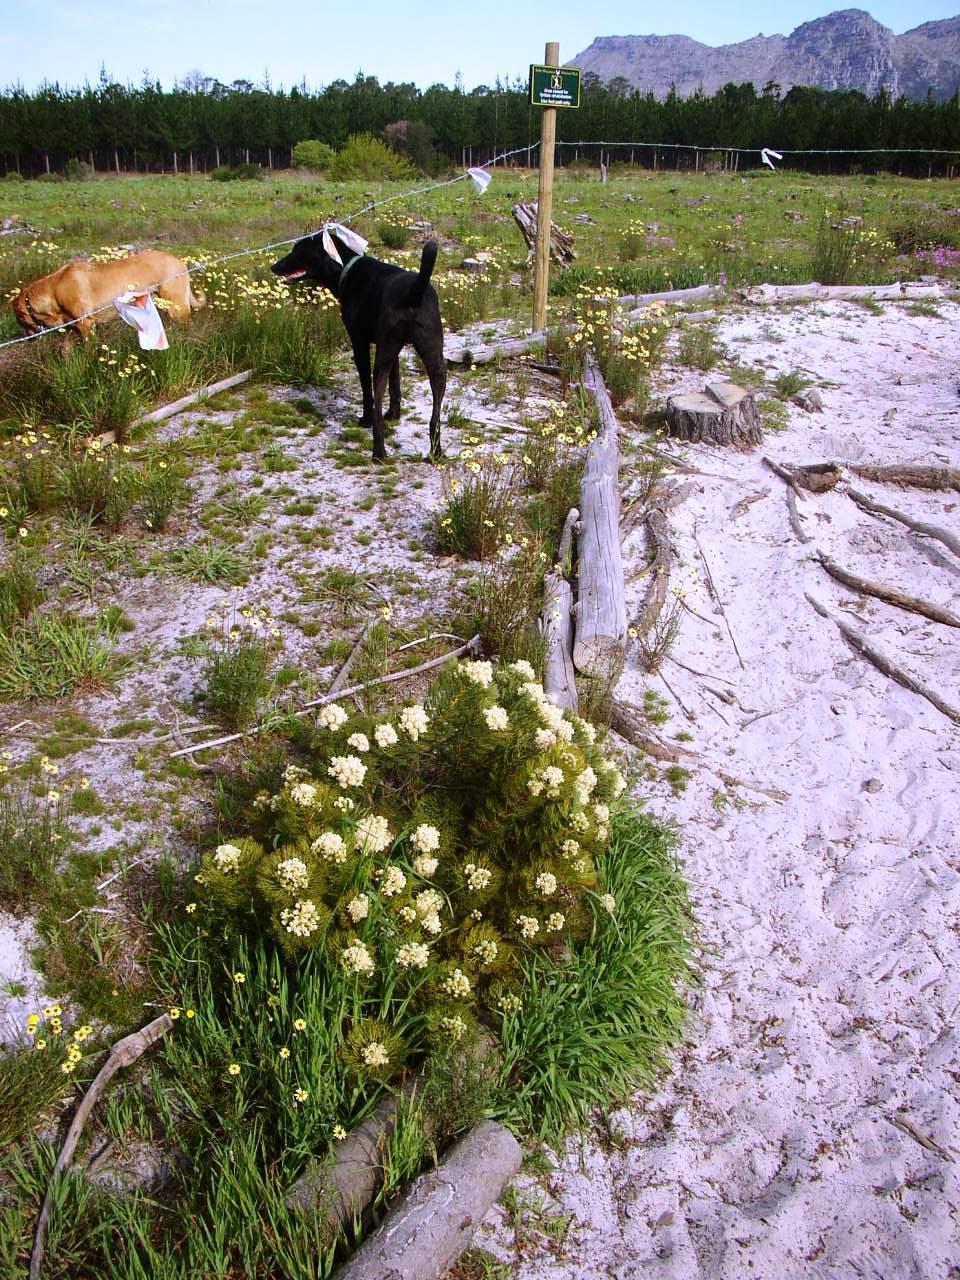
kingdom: Plantae
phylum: Tracheophyta
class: Magnoliopsida
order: Proteales
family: Proteaceae
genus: Serruria
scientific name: Serruria glomerata
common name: Cluster spiderhead
